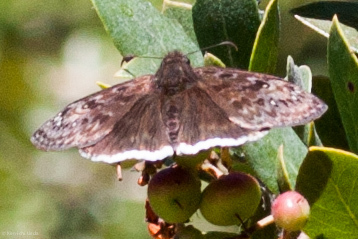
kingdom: Animalia
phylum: Arthropoda
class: Insecta
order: Lepidoptera
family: Hesperiidae
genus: Erynnis
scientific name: Erynnis tristis
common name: Mournful duskywing
